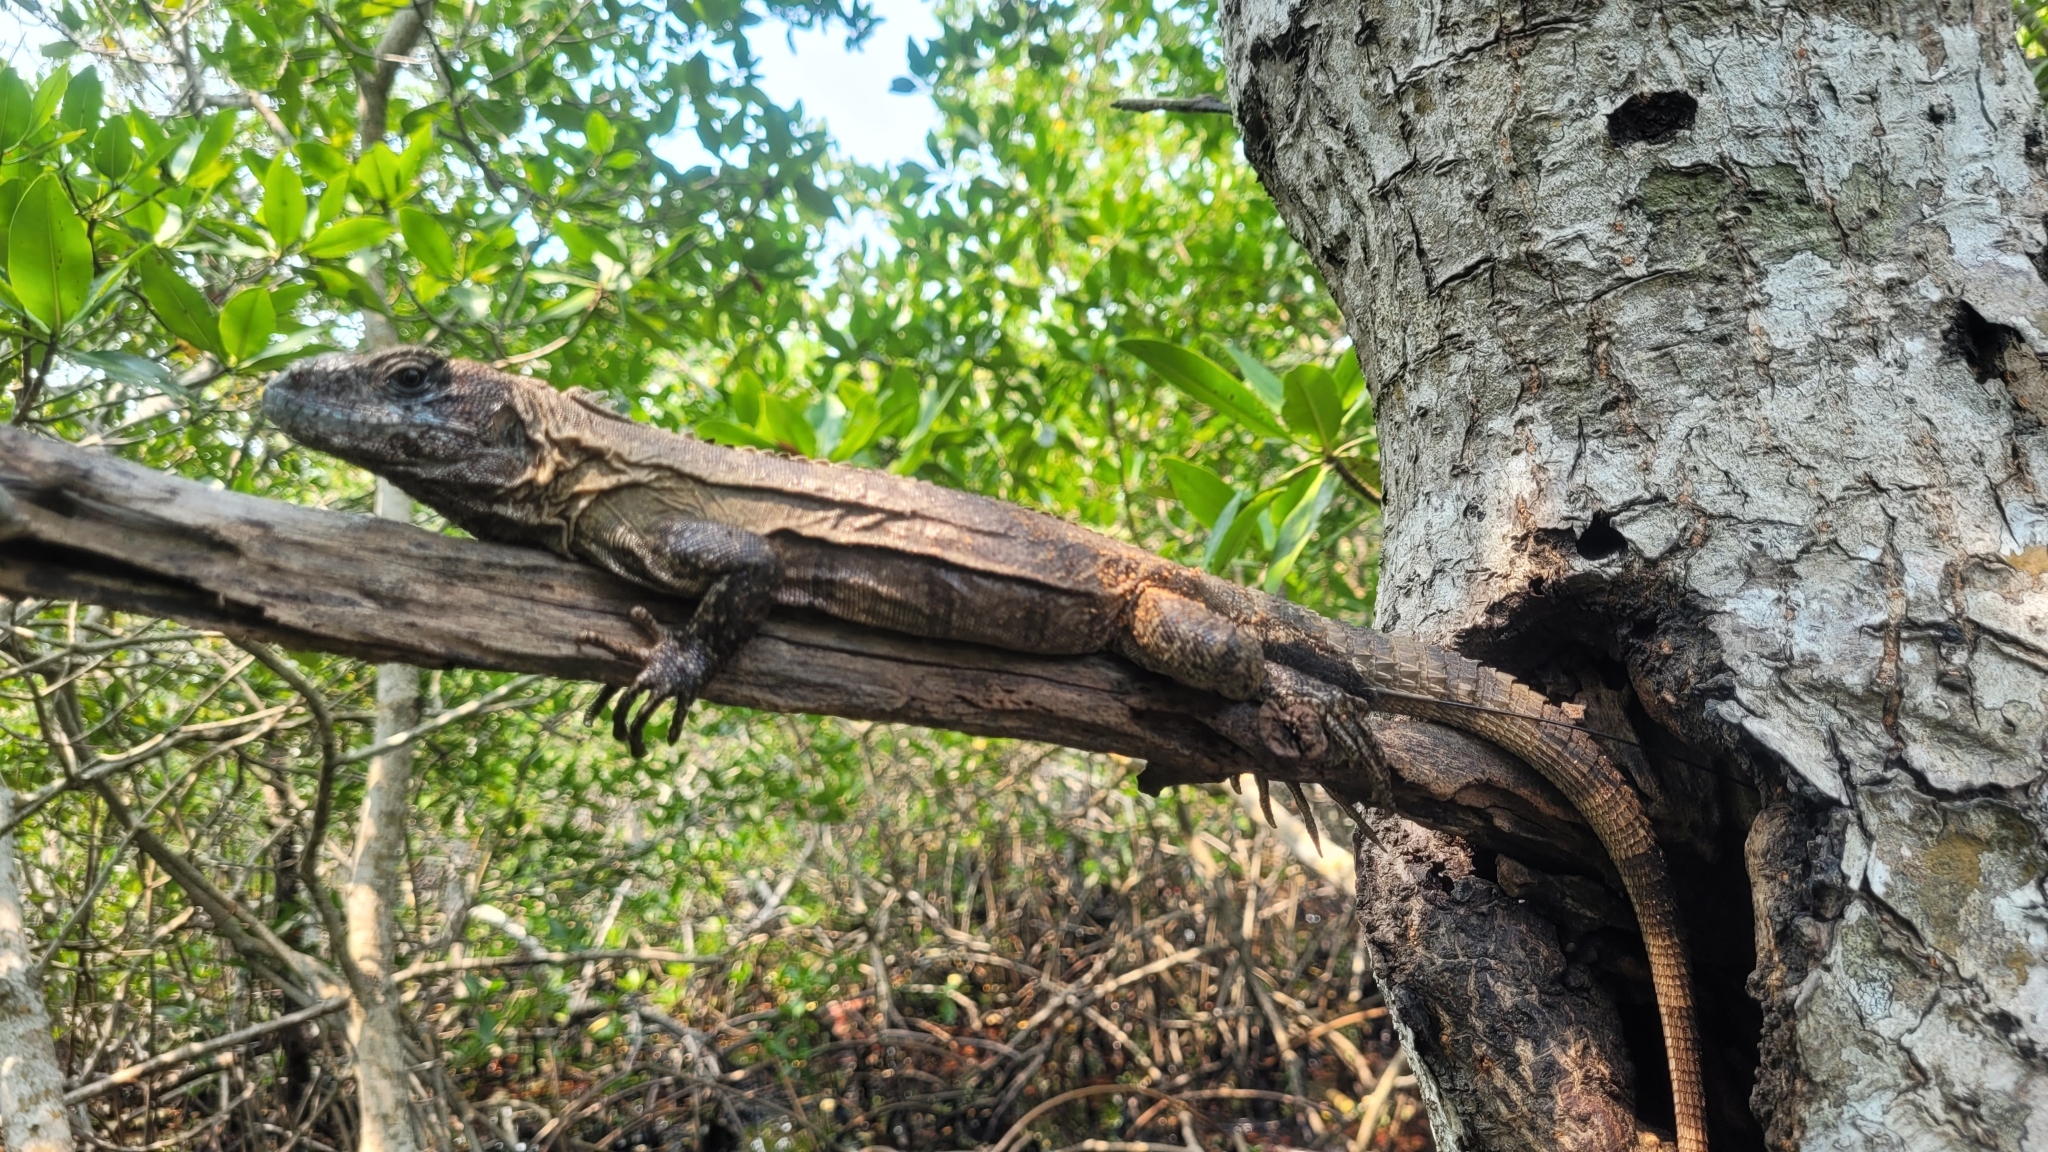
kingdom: Animalia
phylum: Chordata
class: Squamata
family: Iguanidae
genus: Ctenosaura
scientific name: Ctenosaura bakeri
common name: Utila spiny-tailed iguana
